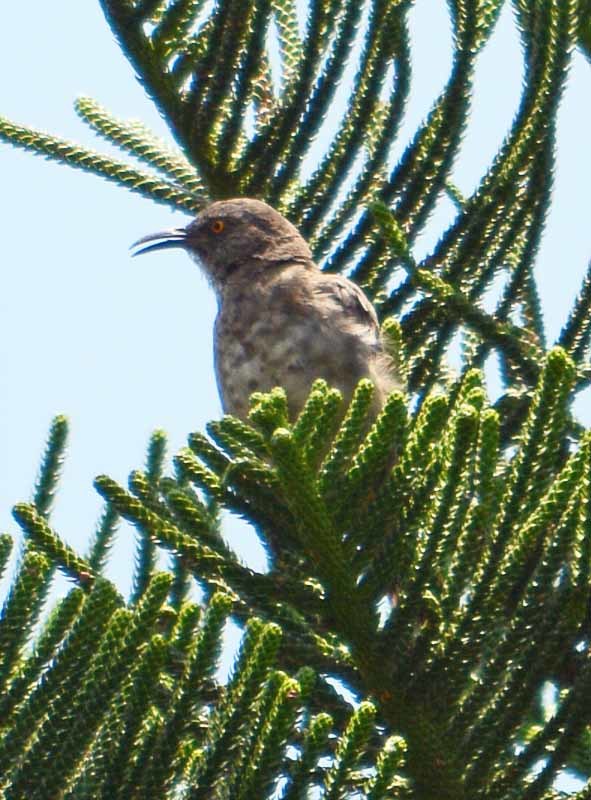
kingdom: Animalia
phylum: Chordata
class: Aves
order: Passeriformes
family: Mimidae
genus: Toxostoma
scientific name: Toxostoma curvirostre
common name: Curve-billed thrasher
